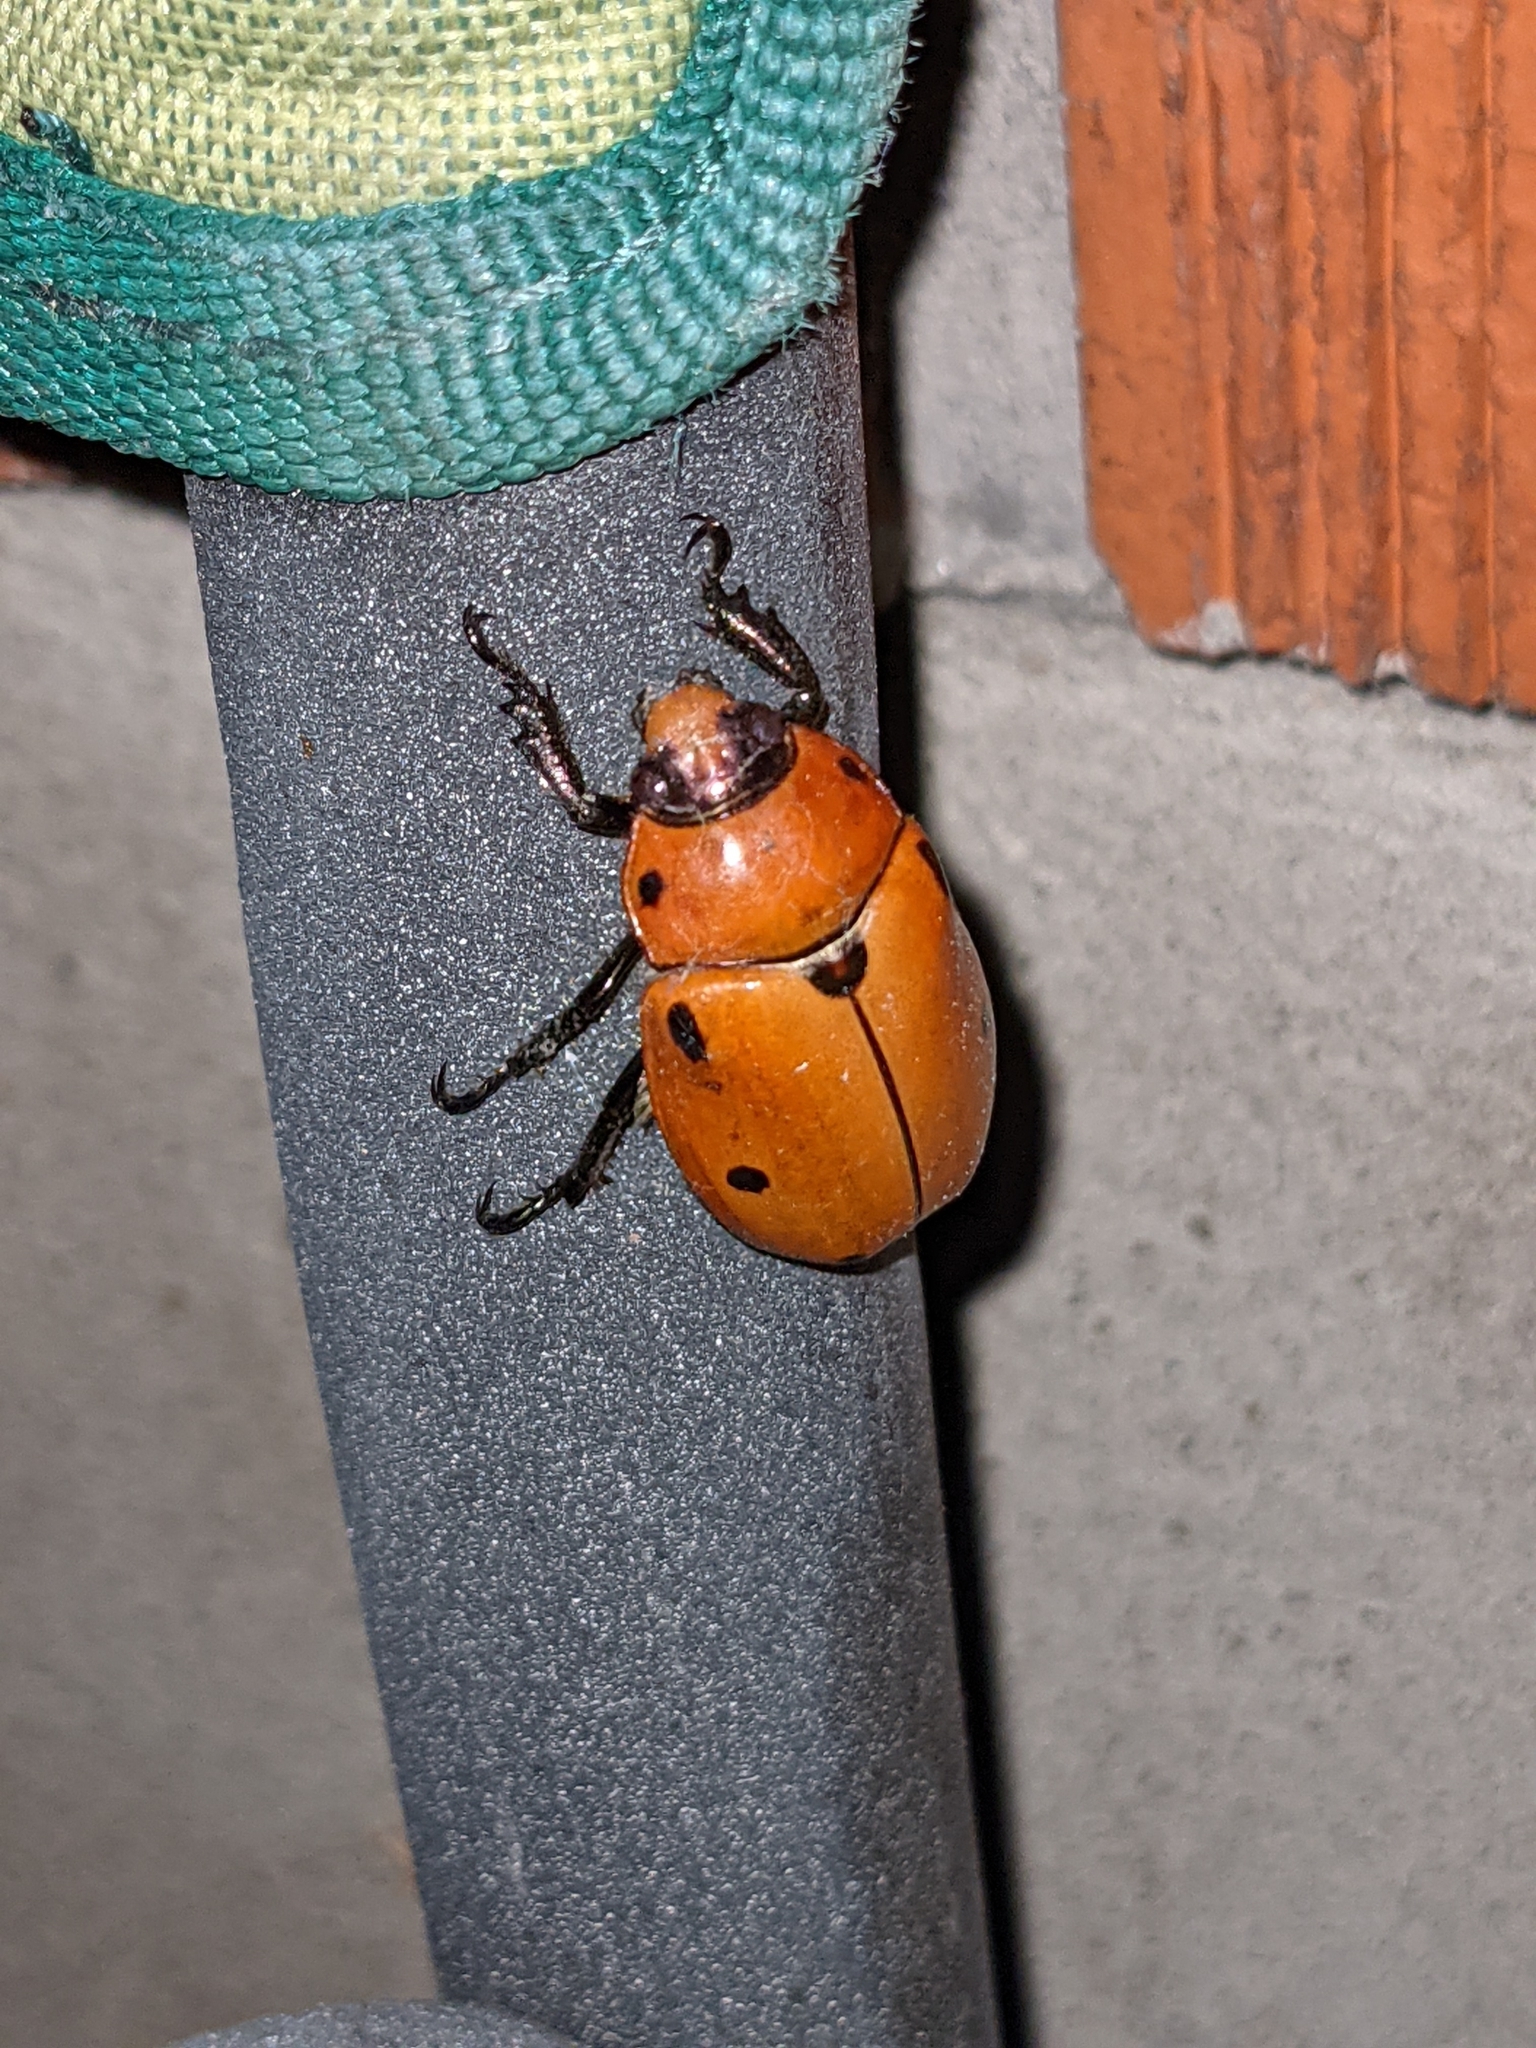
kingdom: Animalia
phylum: Arthropoda
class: Insecta
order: Coleoptera
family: Scarabaeidae
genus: Pelidnota
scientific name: Pelidnota punctata
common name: Grapevine beetle
